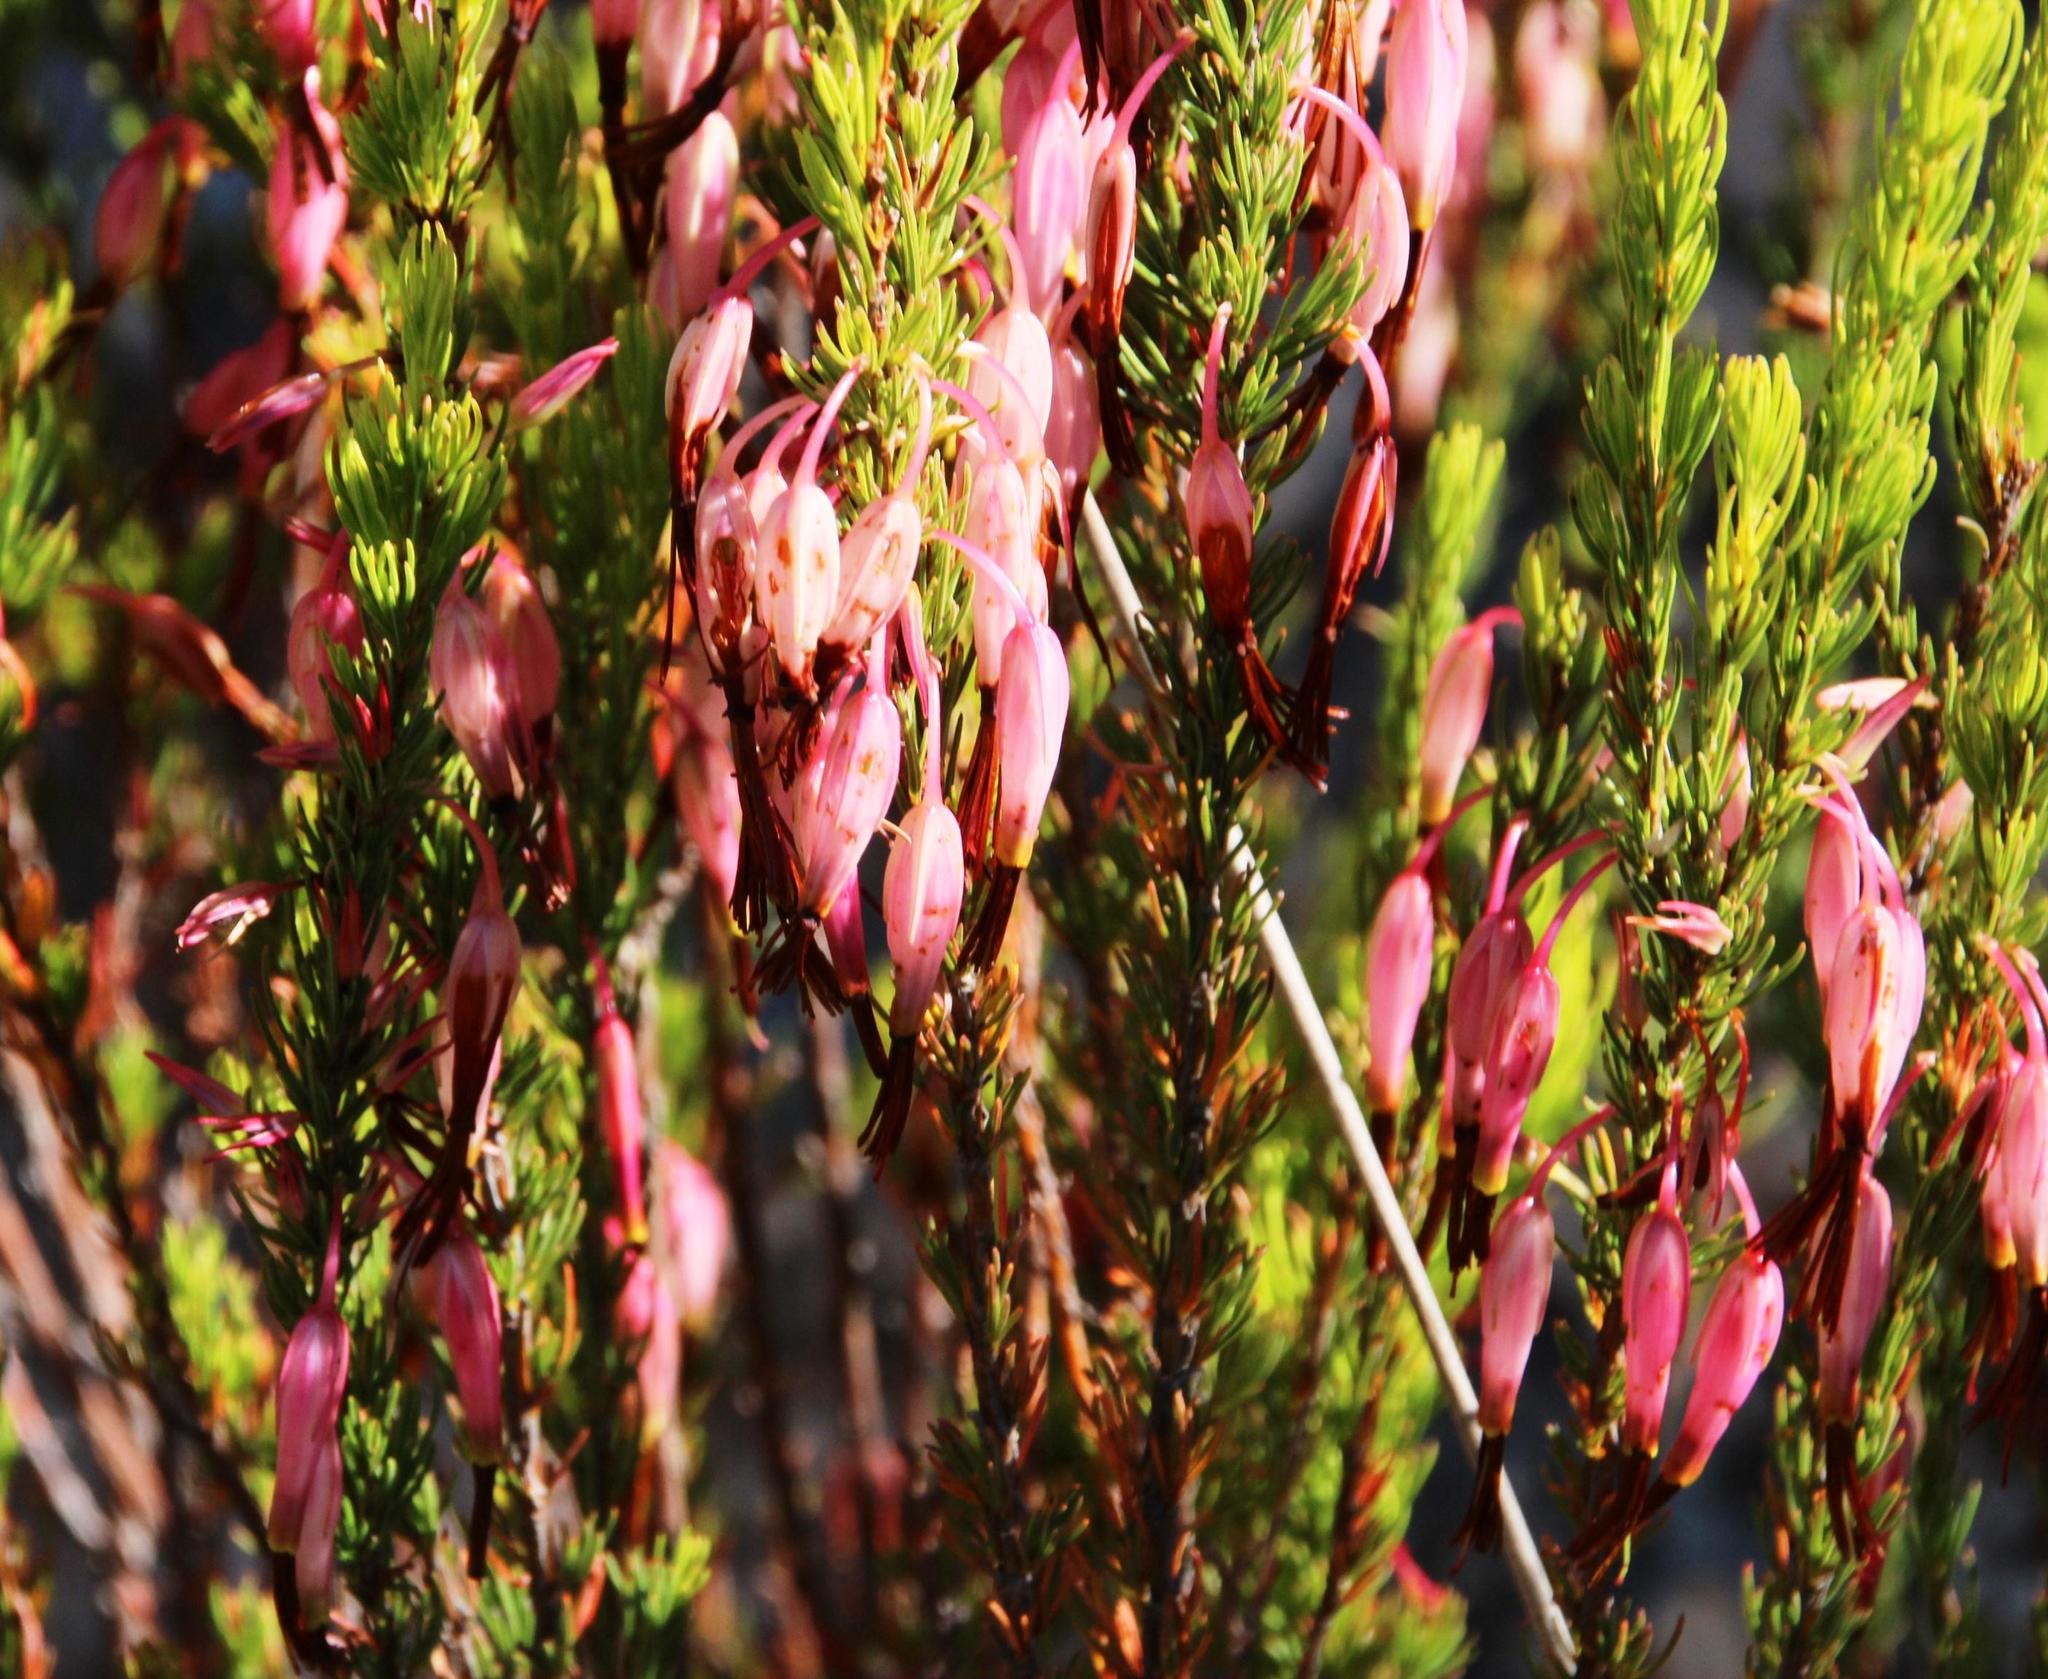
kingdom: Plantae
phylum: Tracheophyta
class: Magnoliopsida
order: Ericales
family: Ericaceae
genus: Erica
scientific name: Erica plukenetii
